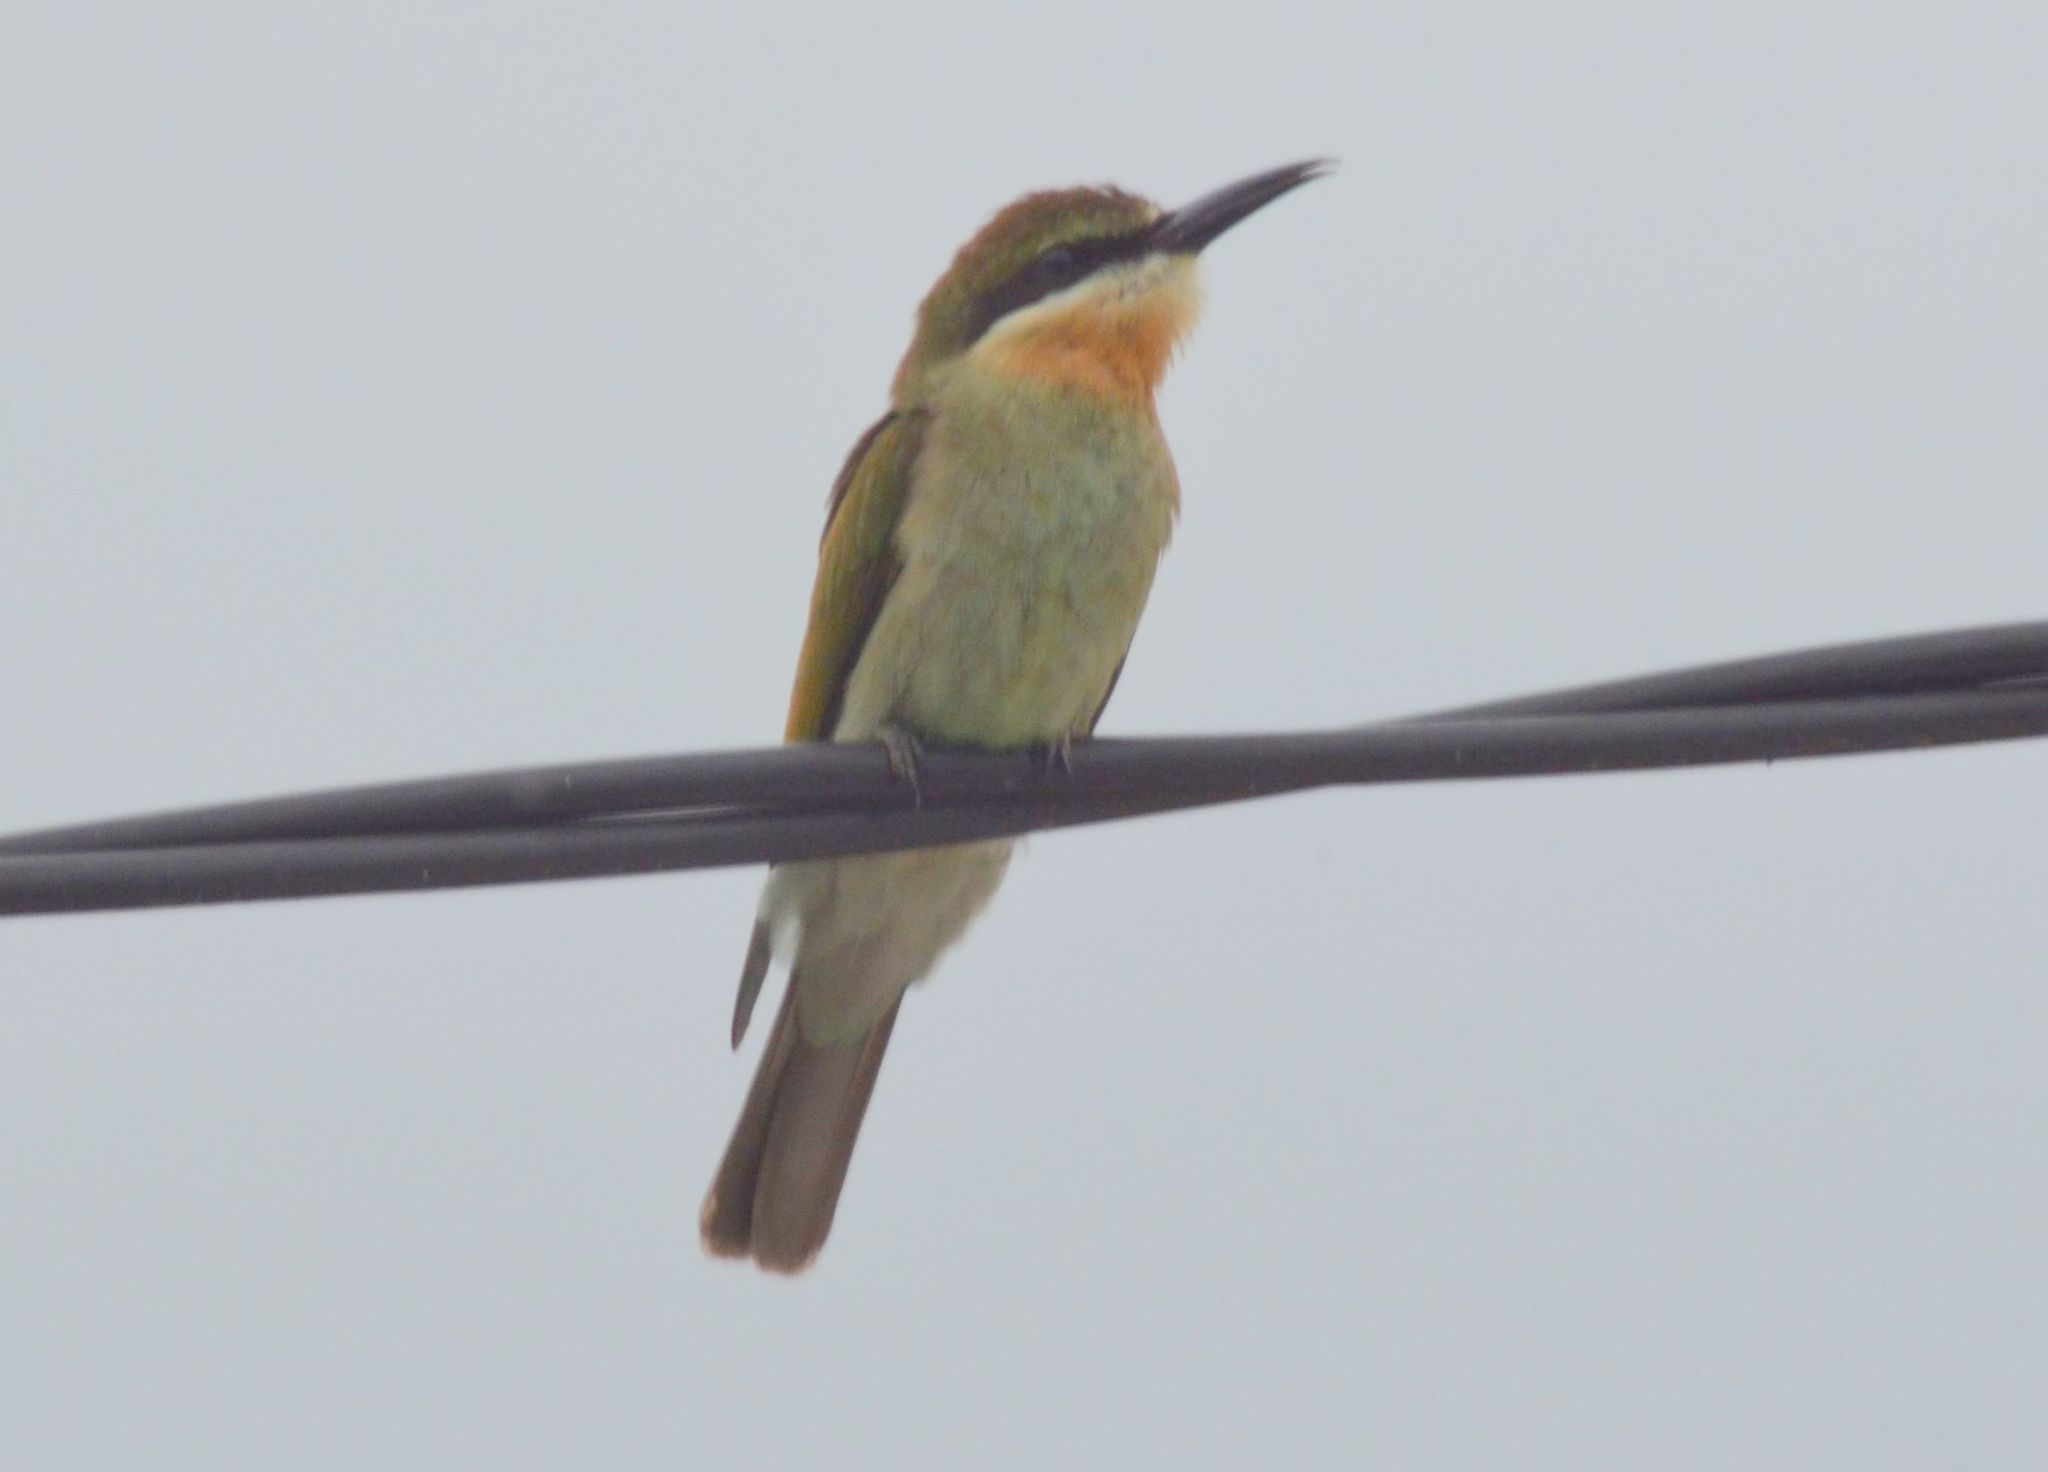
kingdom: Animalia
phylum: Chordata
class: Aves
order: Coraciiformes
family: Meropidae
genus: Merops
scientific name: Merops superciliosus
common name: Olive bee-eater
